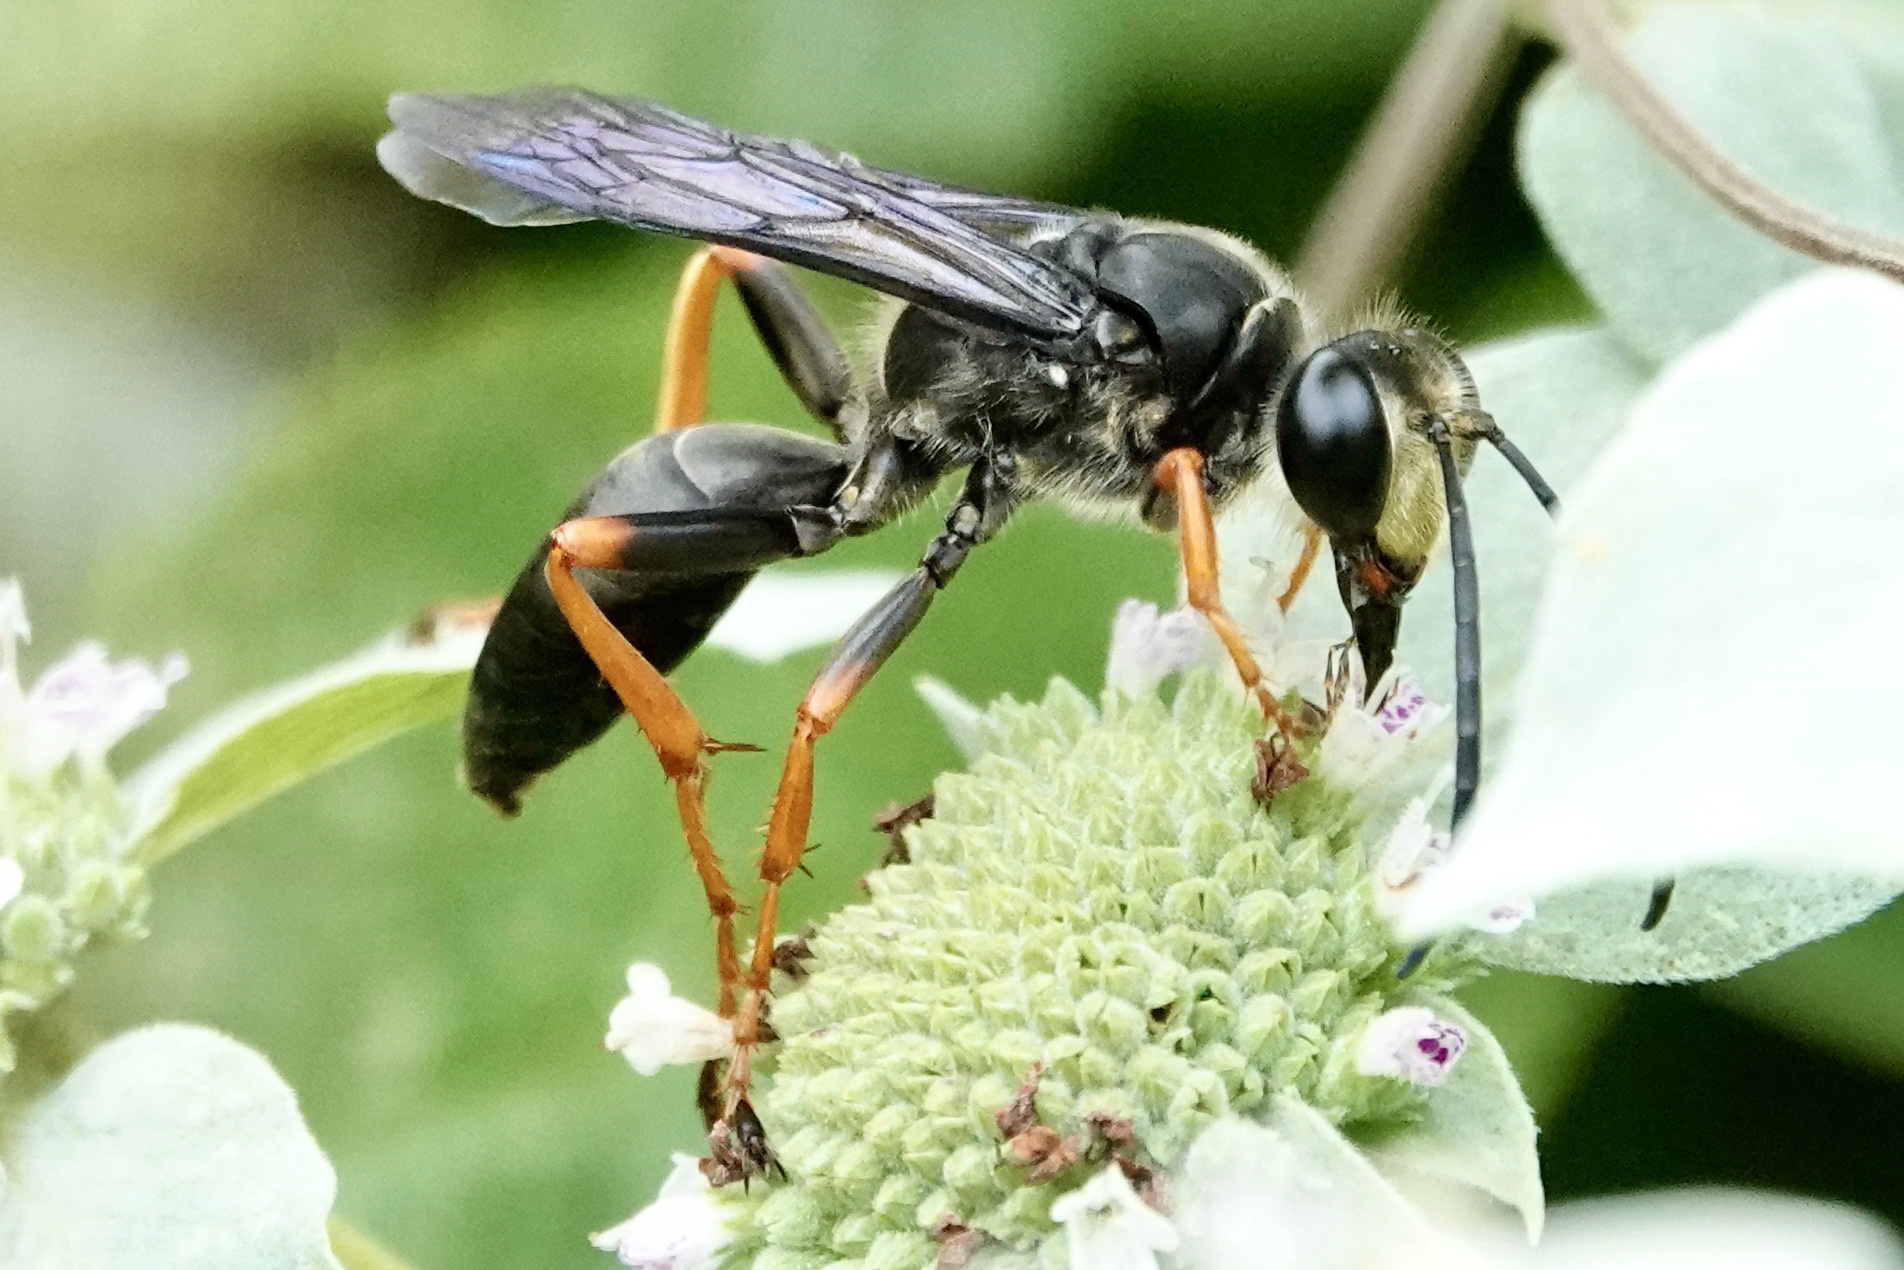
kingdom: Animalia
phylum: Arthropoda
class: Insecta
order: Hymenoptera
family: Sphecidae
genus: Sphex
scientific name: Sphex nudus
